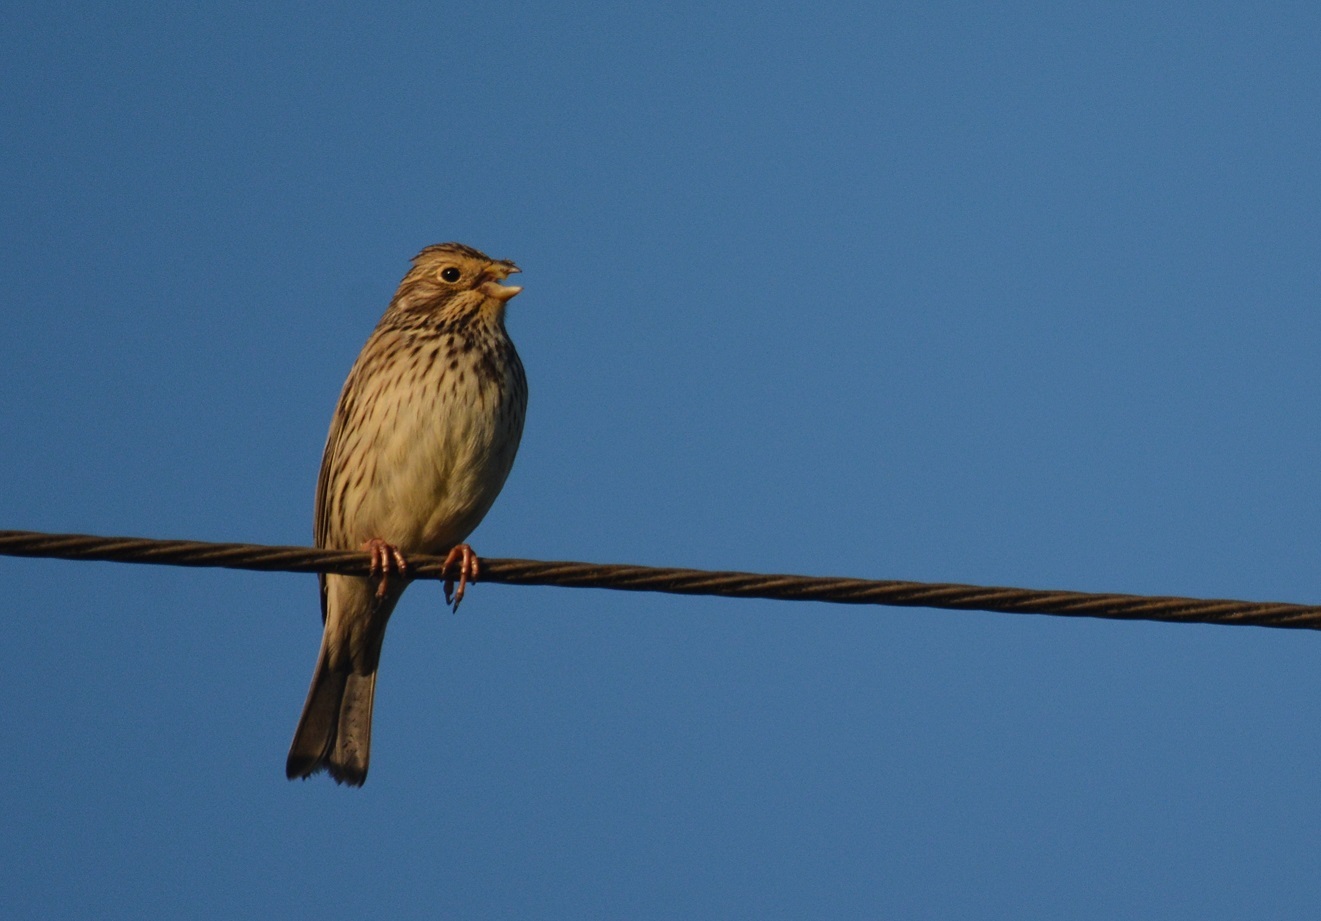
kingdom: Animalia
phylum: Chordata
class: Aves
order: Passeriformes
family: Emberizidae
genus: Emberiza
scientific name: Emberiza calandra
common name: Corn bunting
